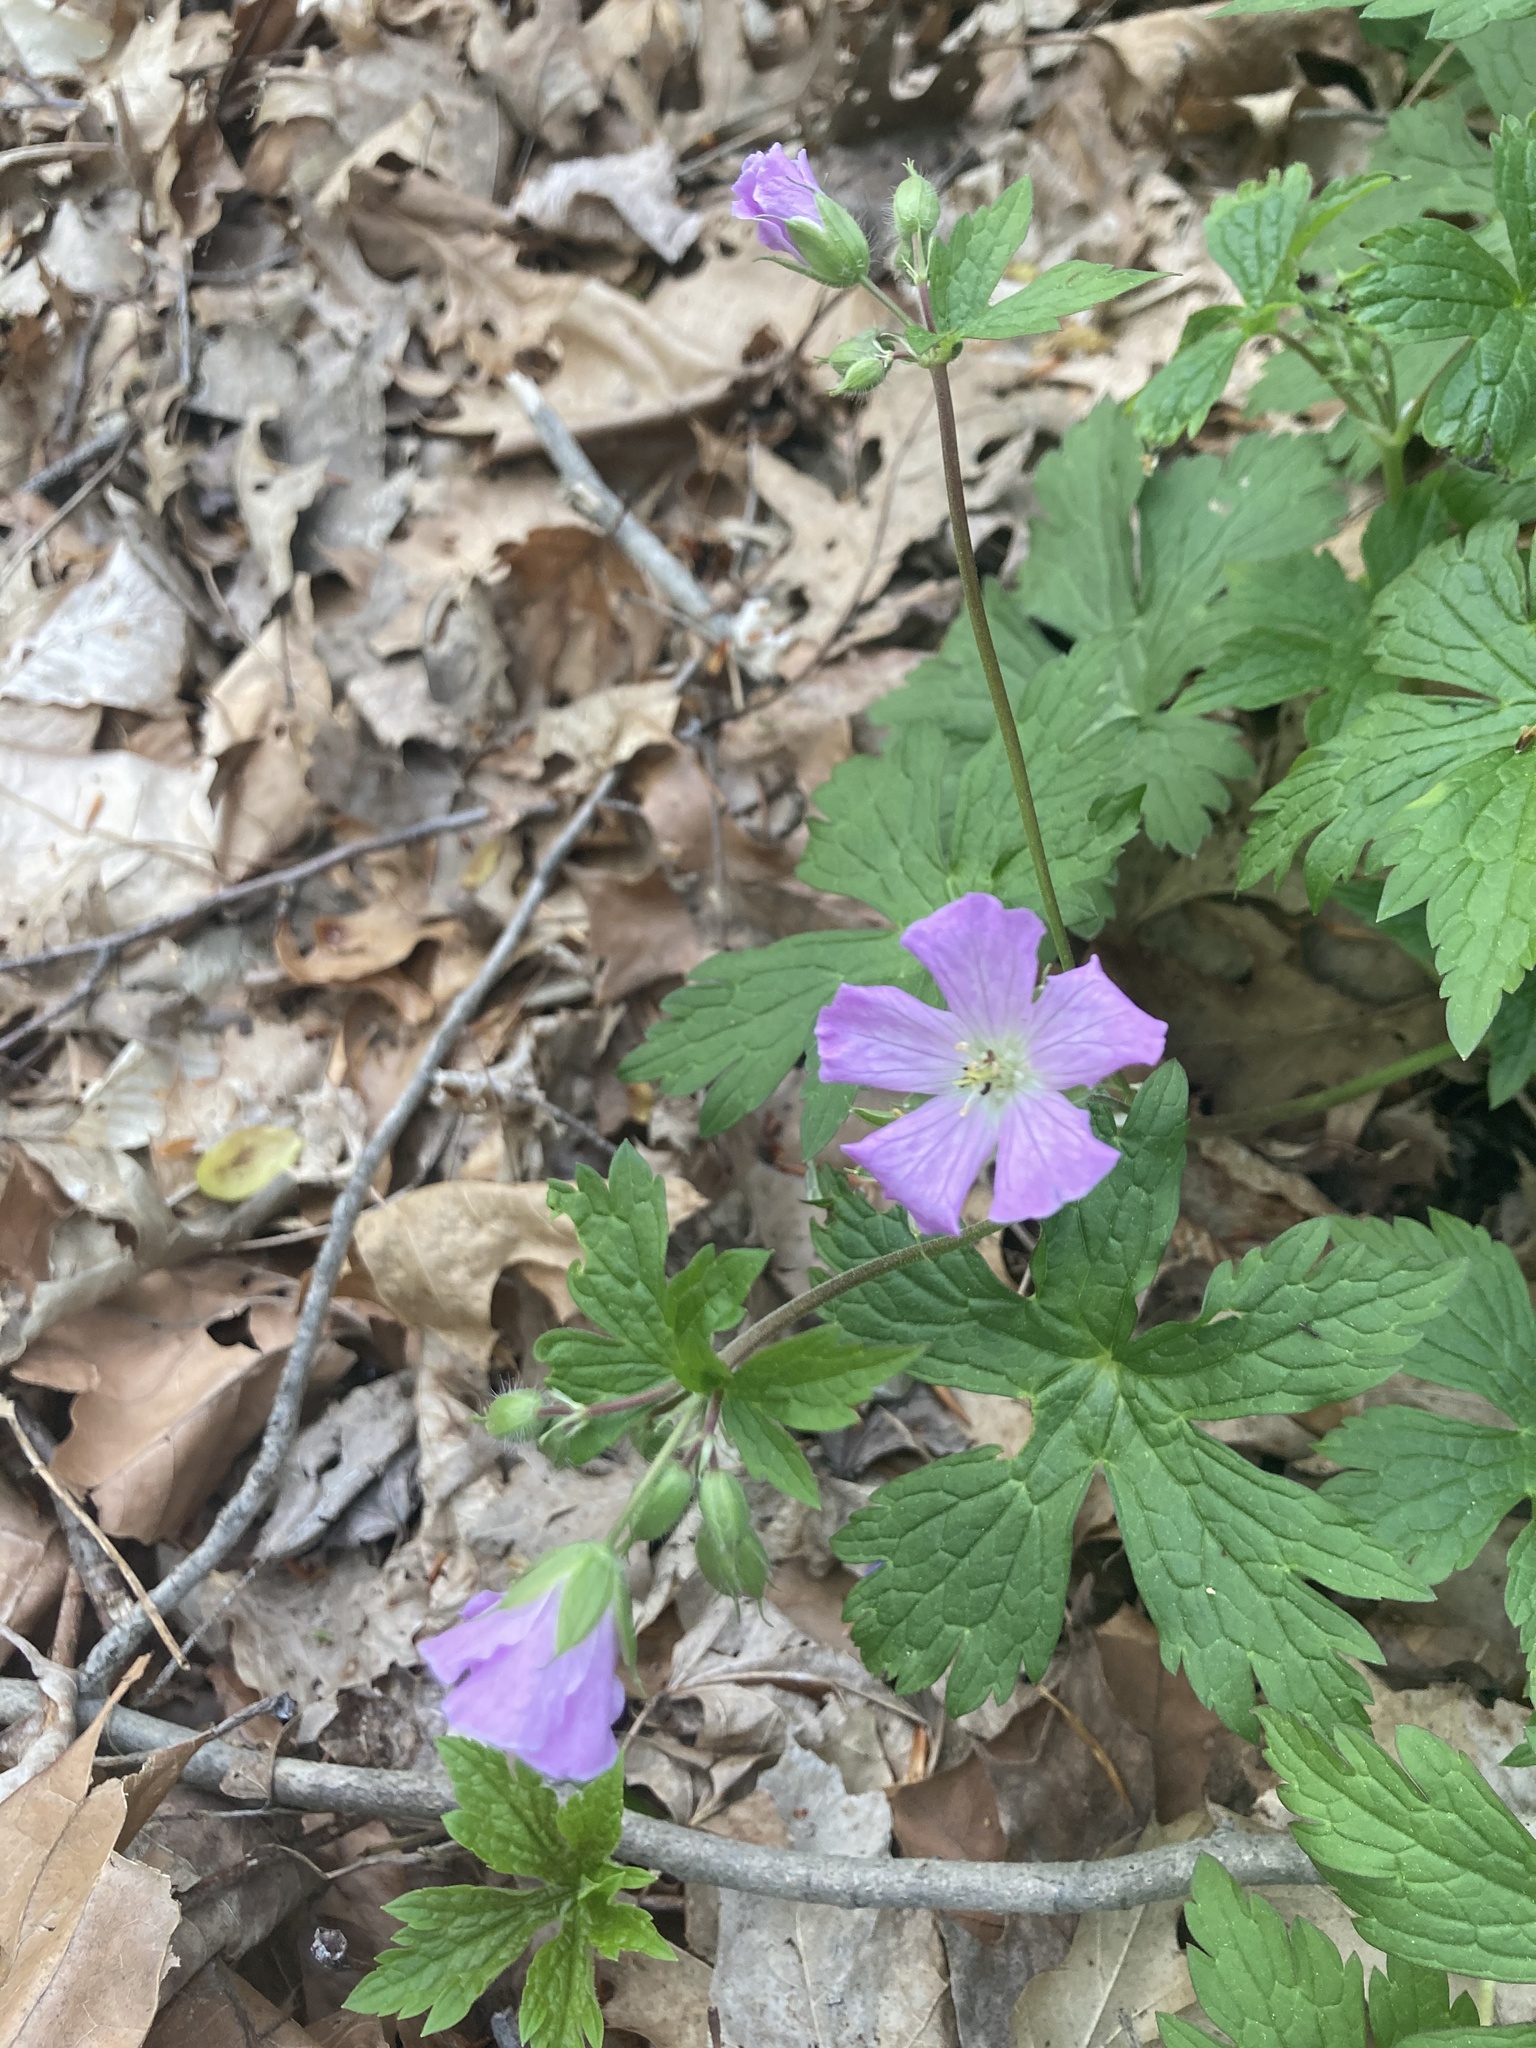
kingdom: Plantae
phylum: Tracheophyta
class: Magnoliopsida
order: Geraniales
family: Geraniaceae
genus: Geranium
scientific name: Geranium maculatum
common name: Spotted geranium
